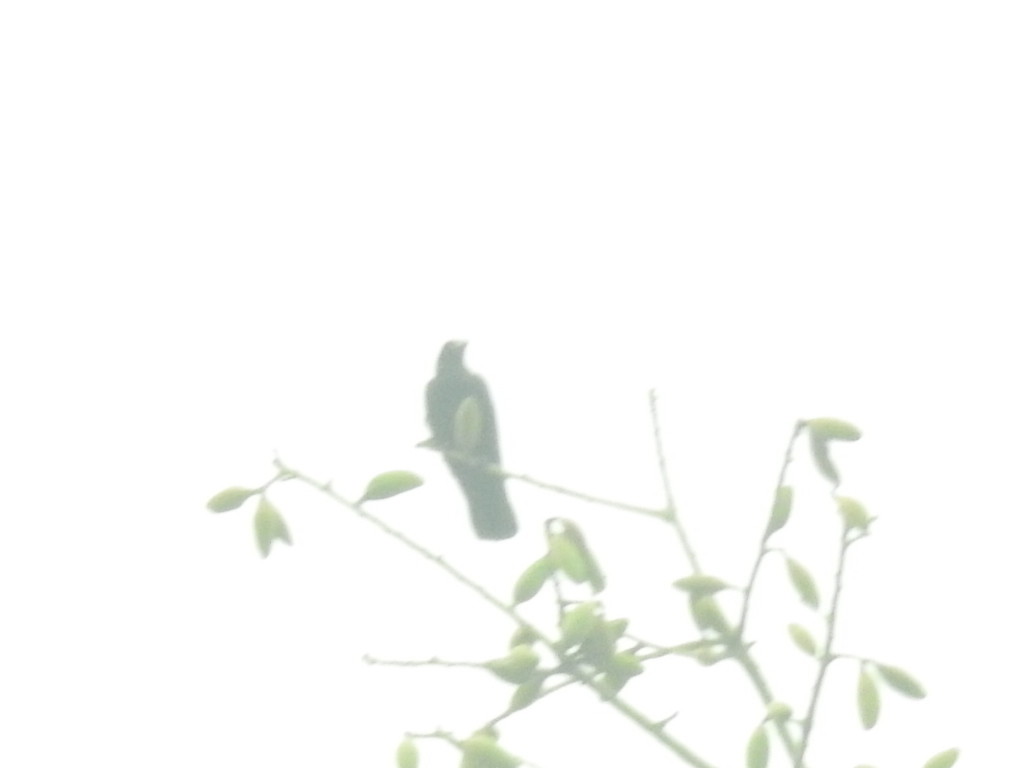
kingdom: Animalia
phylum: Chordata
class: Aves
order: Cuculiformes
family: Cuculidae
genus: Eudynamys
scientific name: Eudynamys scolopaceus
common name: Asian koel
